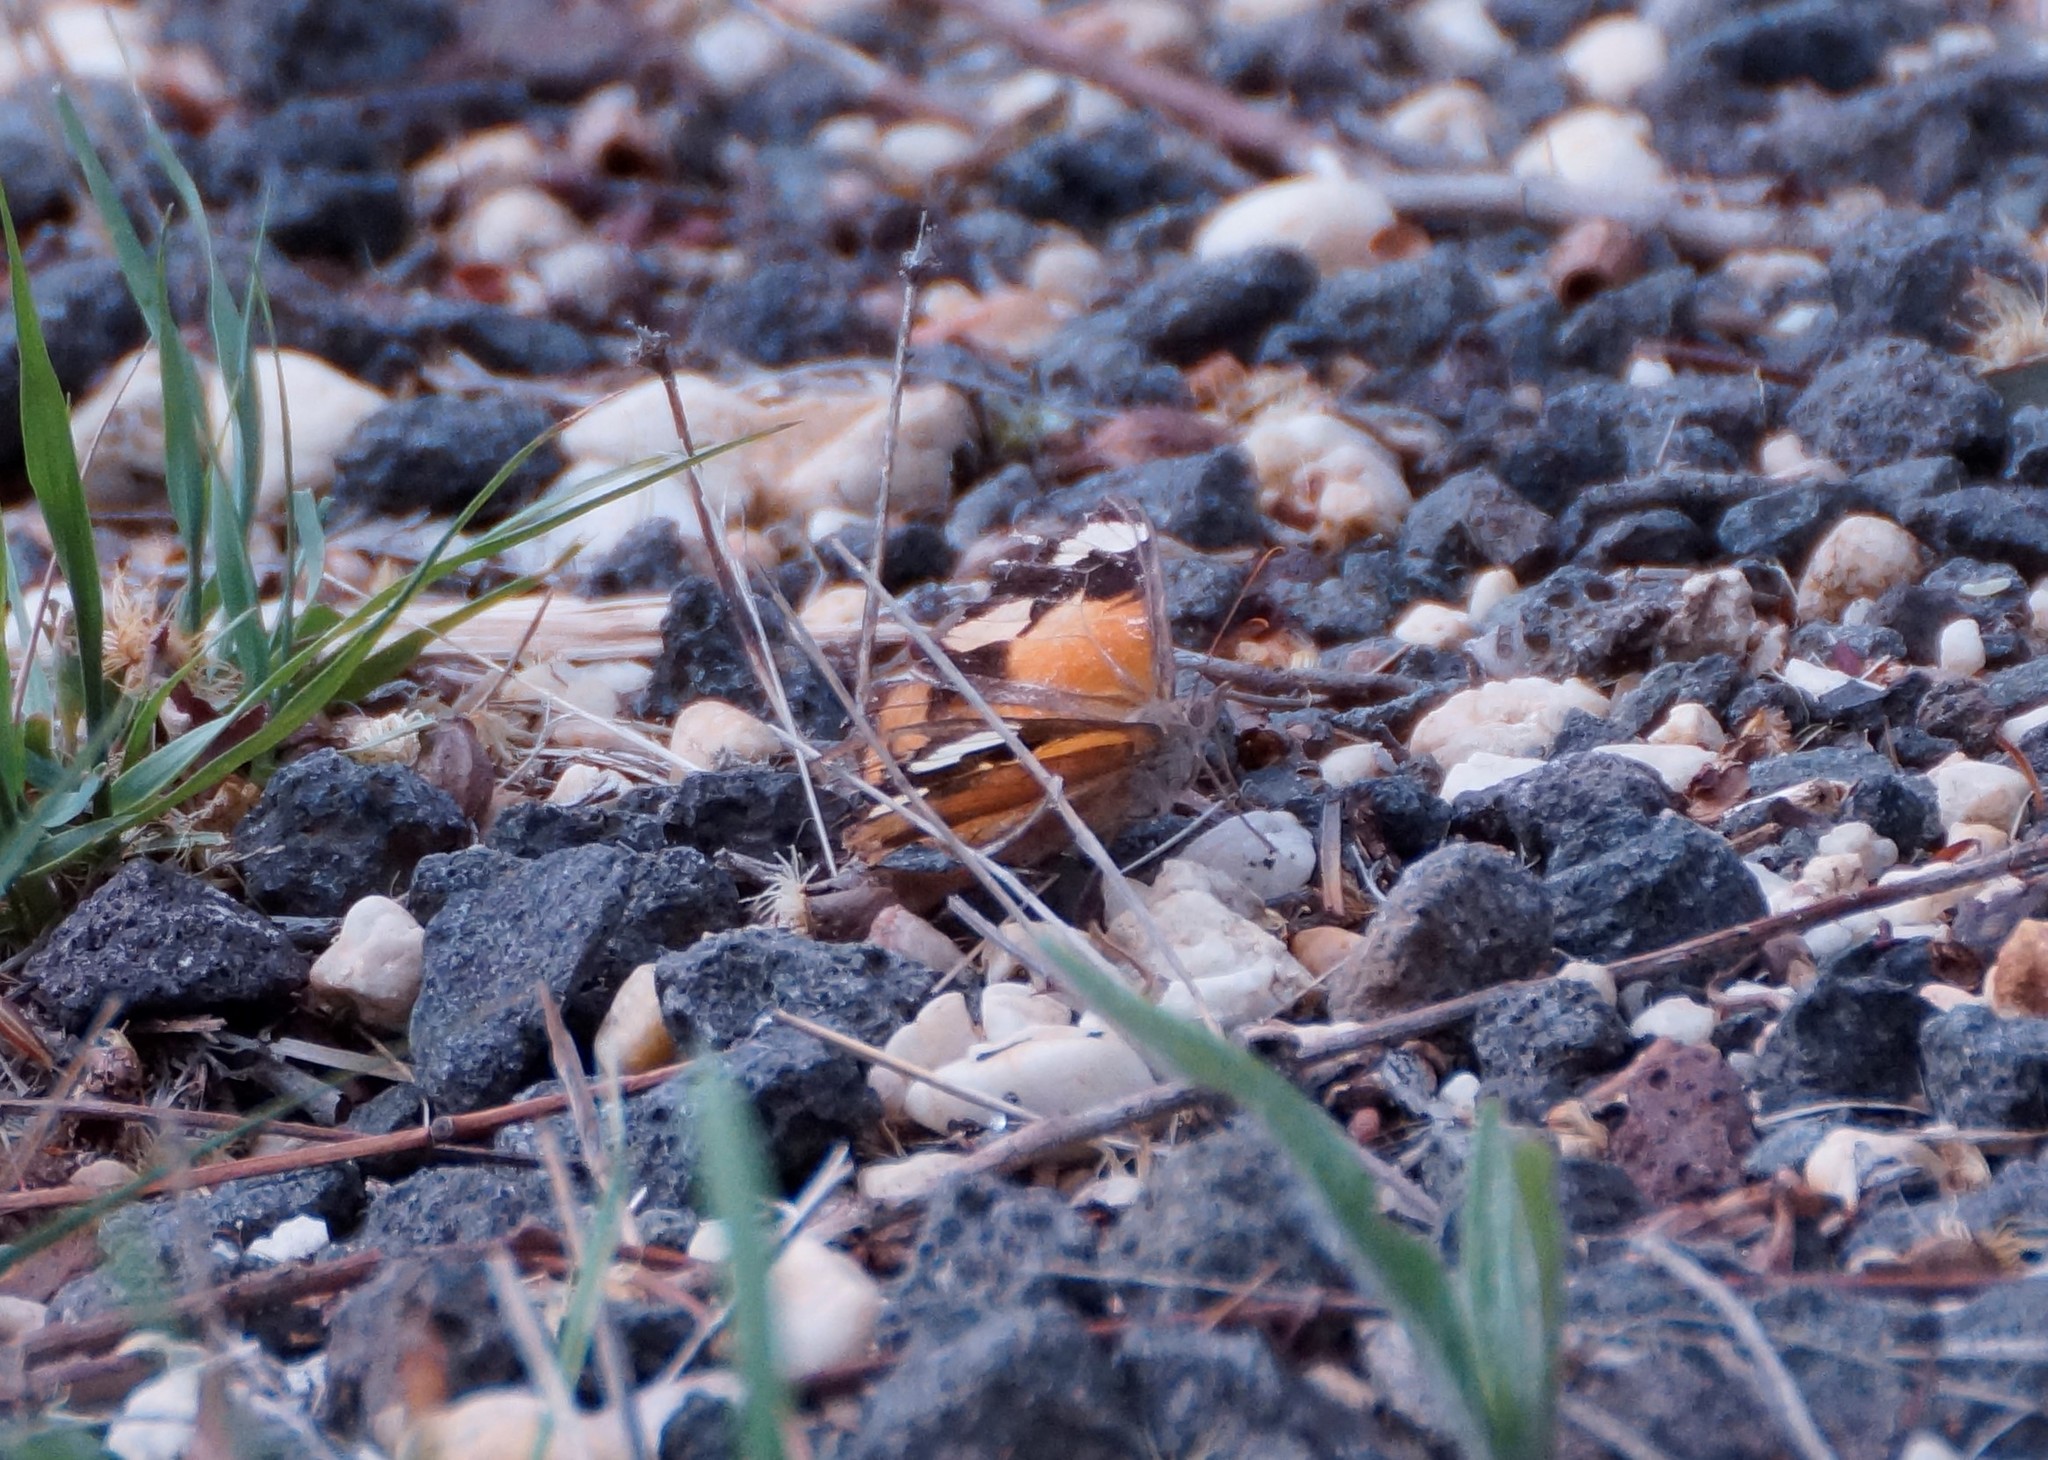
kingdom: Animalia
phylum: Arthropoda
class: Insecta
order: Lepidoptera
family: Nymphalidae
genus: Heteronympha
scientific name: Heteronympha merope
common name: Common brown
